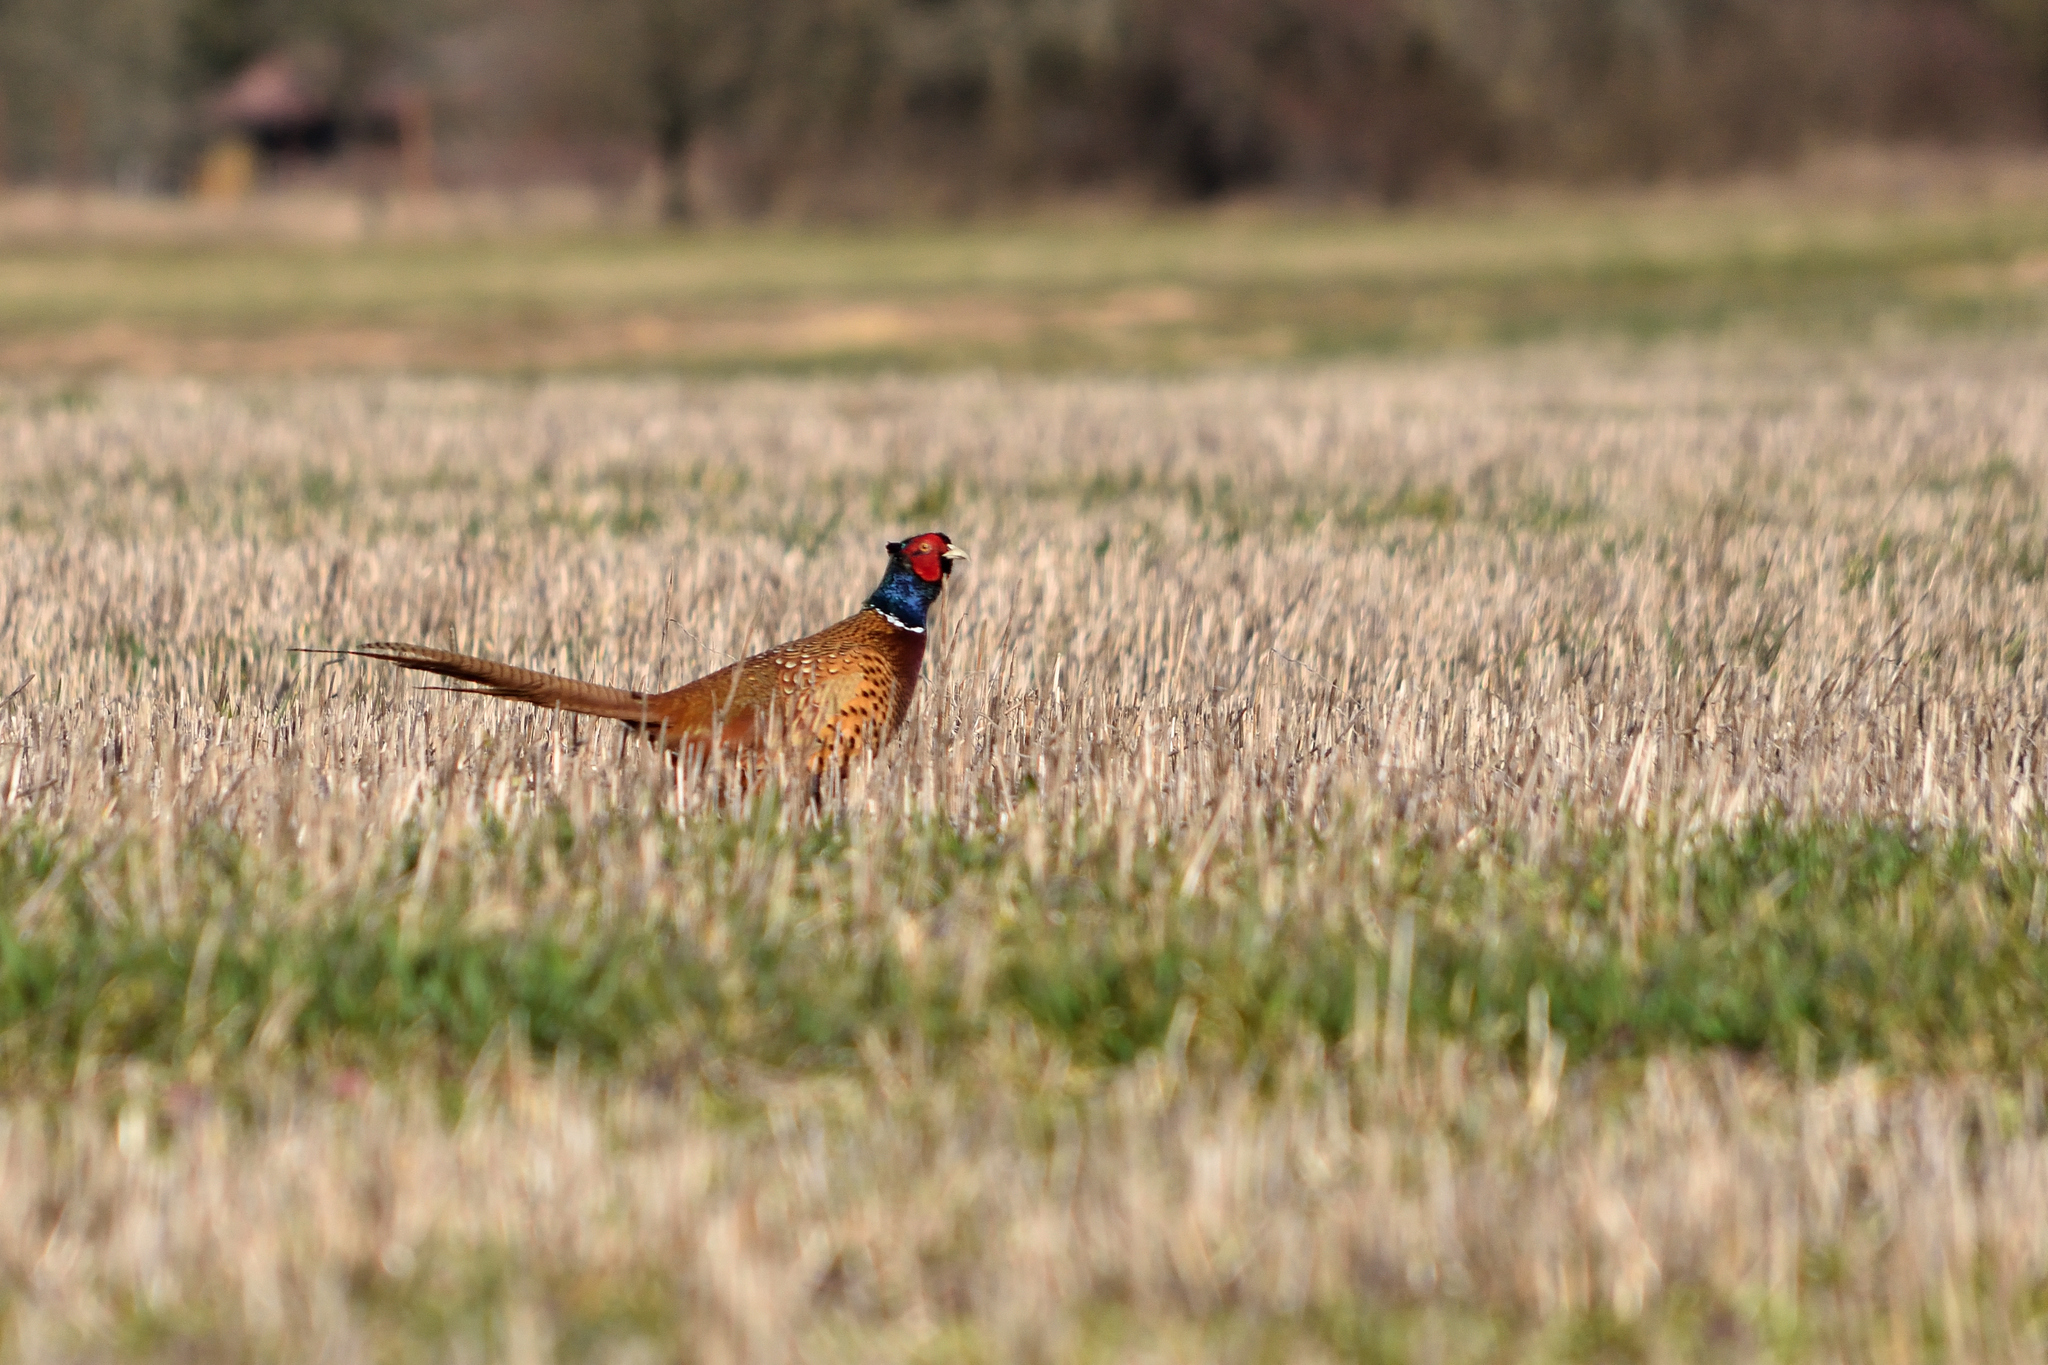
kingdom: Animalia
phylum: Chordata
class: Aves
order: Galliformes
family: Phasianidae
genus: Phasianus
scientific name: Phasianus colchicus
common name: Common pheasant
